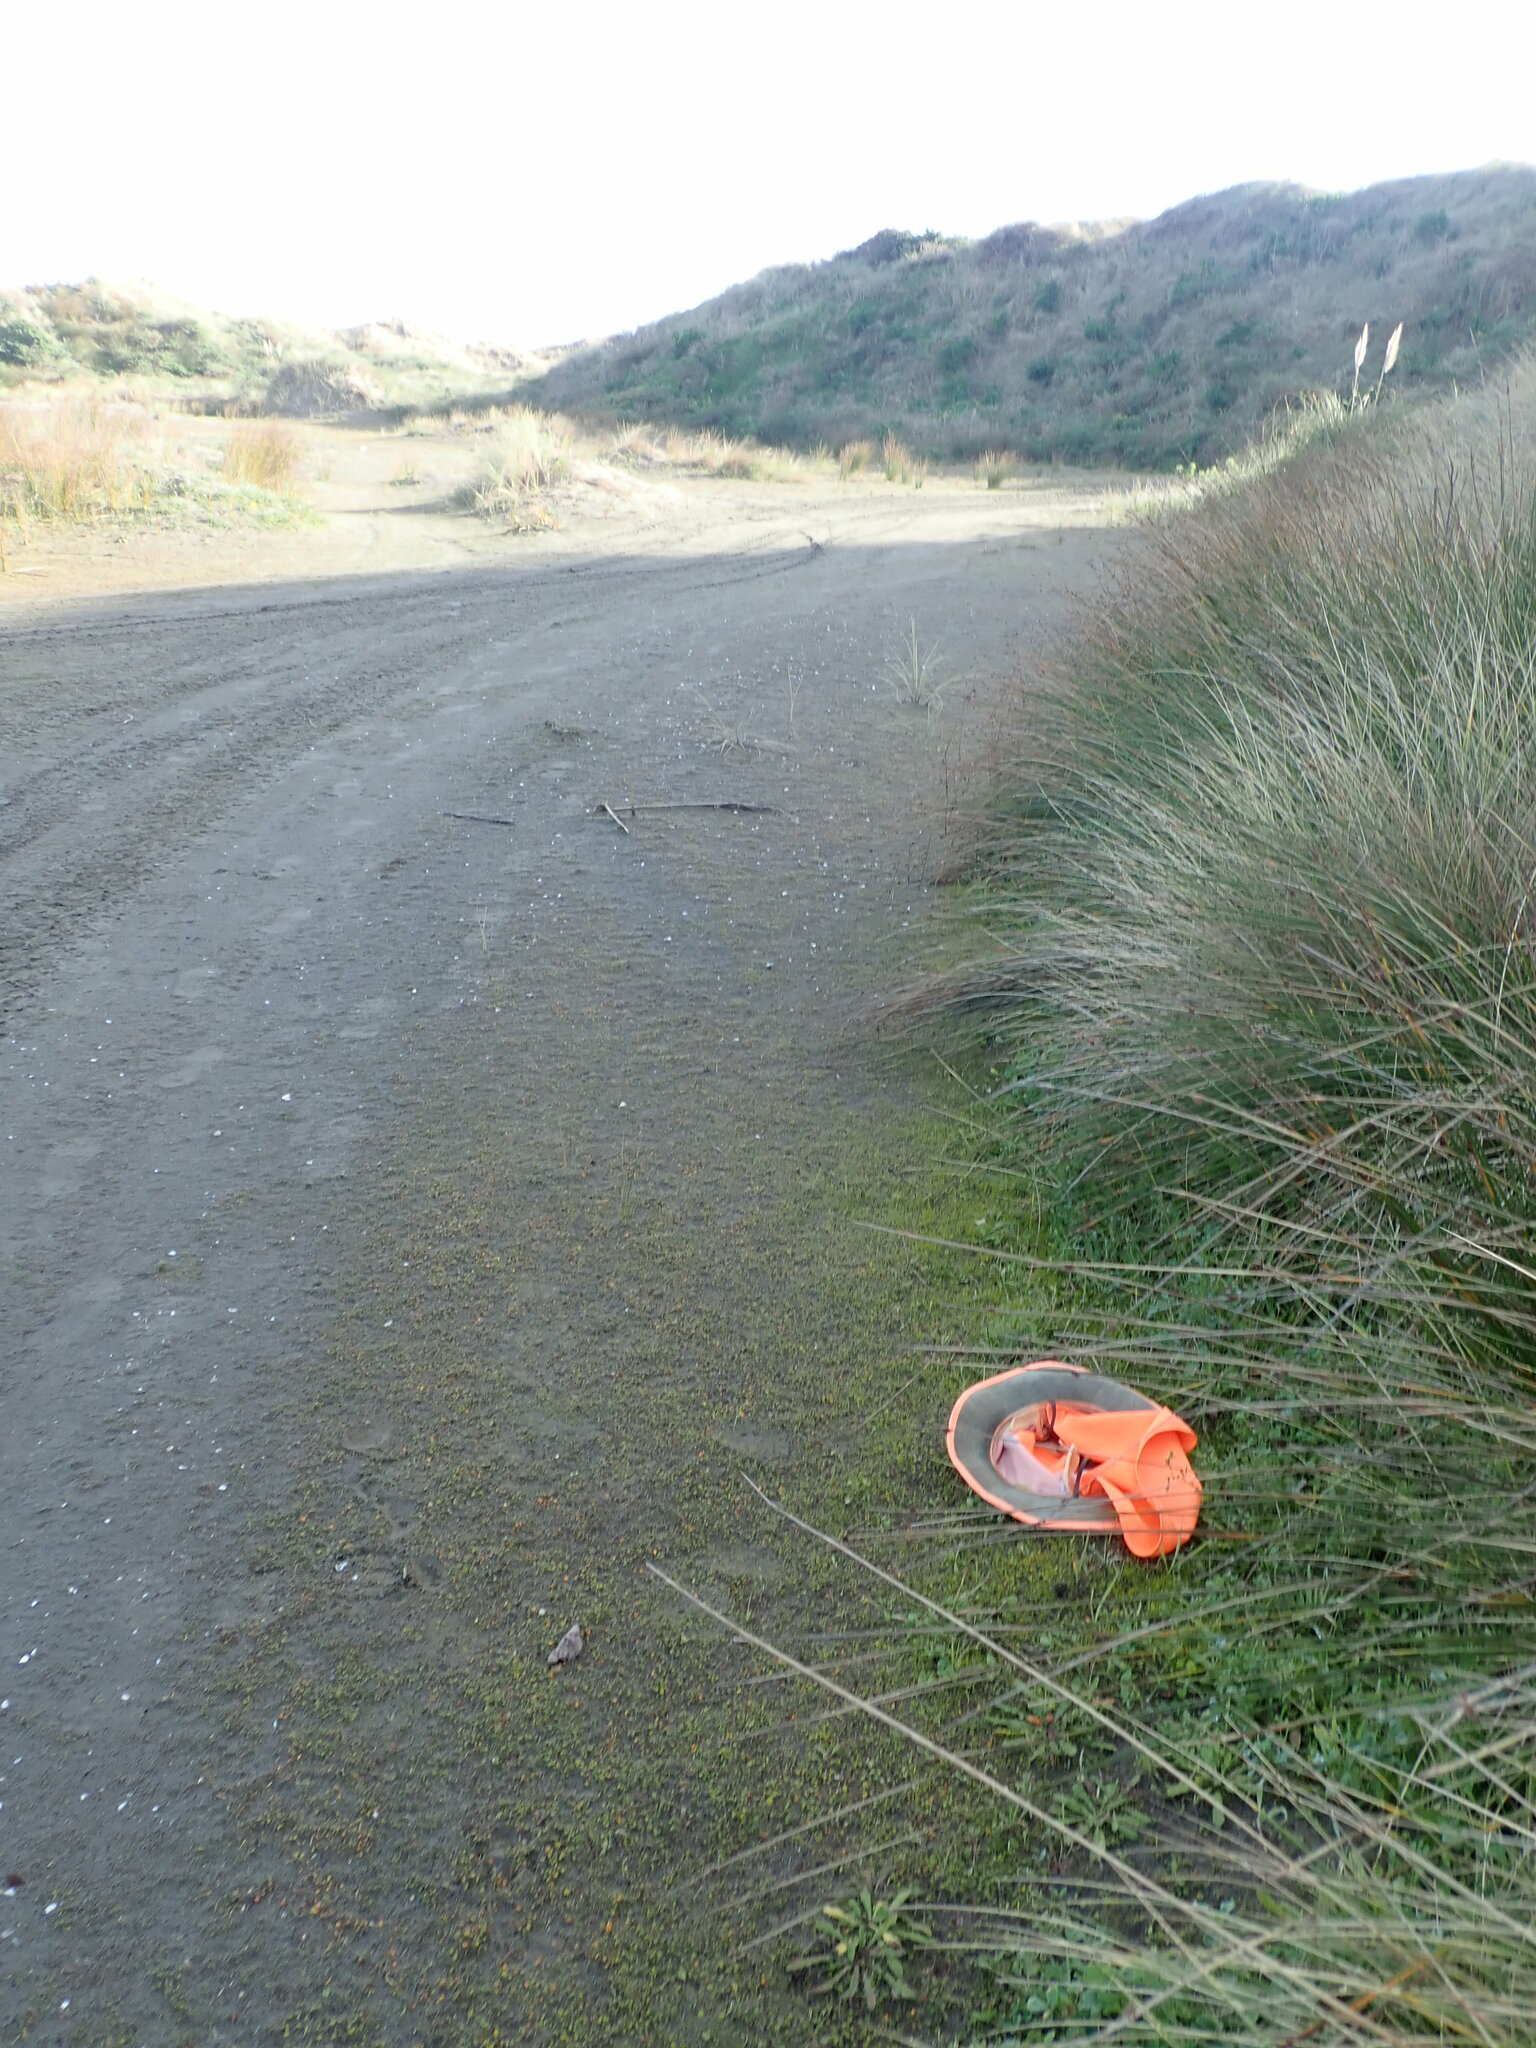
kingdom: Plantae
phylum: Tracheophyta
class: Magnoliopsida
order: Asterales
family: Goodeniaceae
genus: Goodenia
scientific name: Goodenia heenanii
